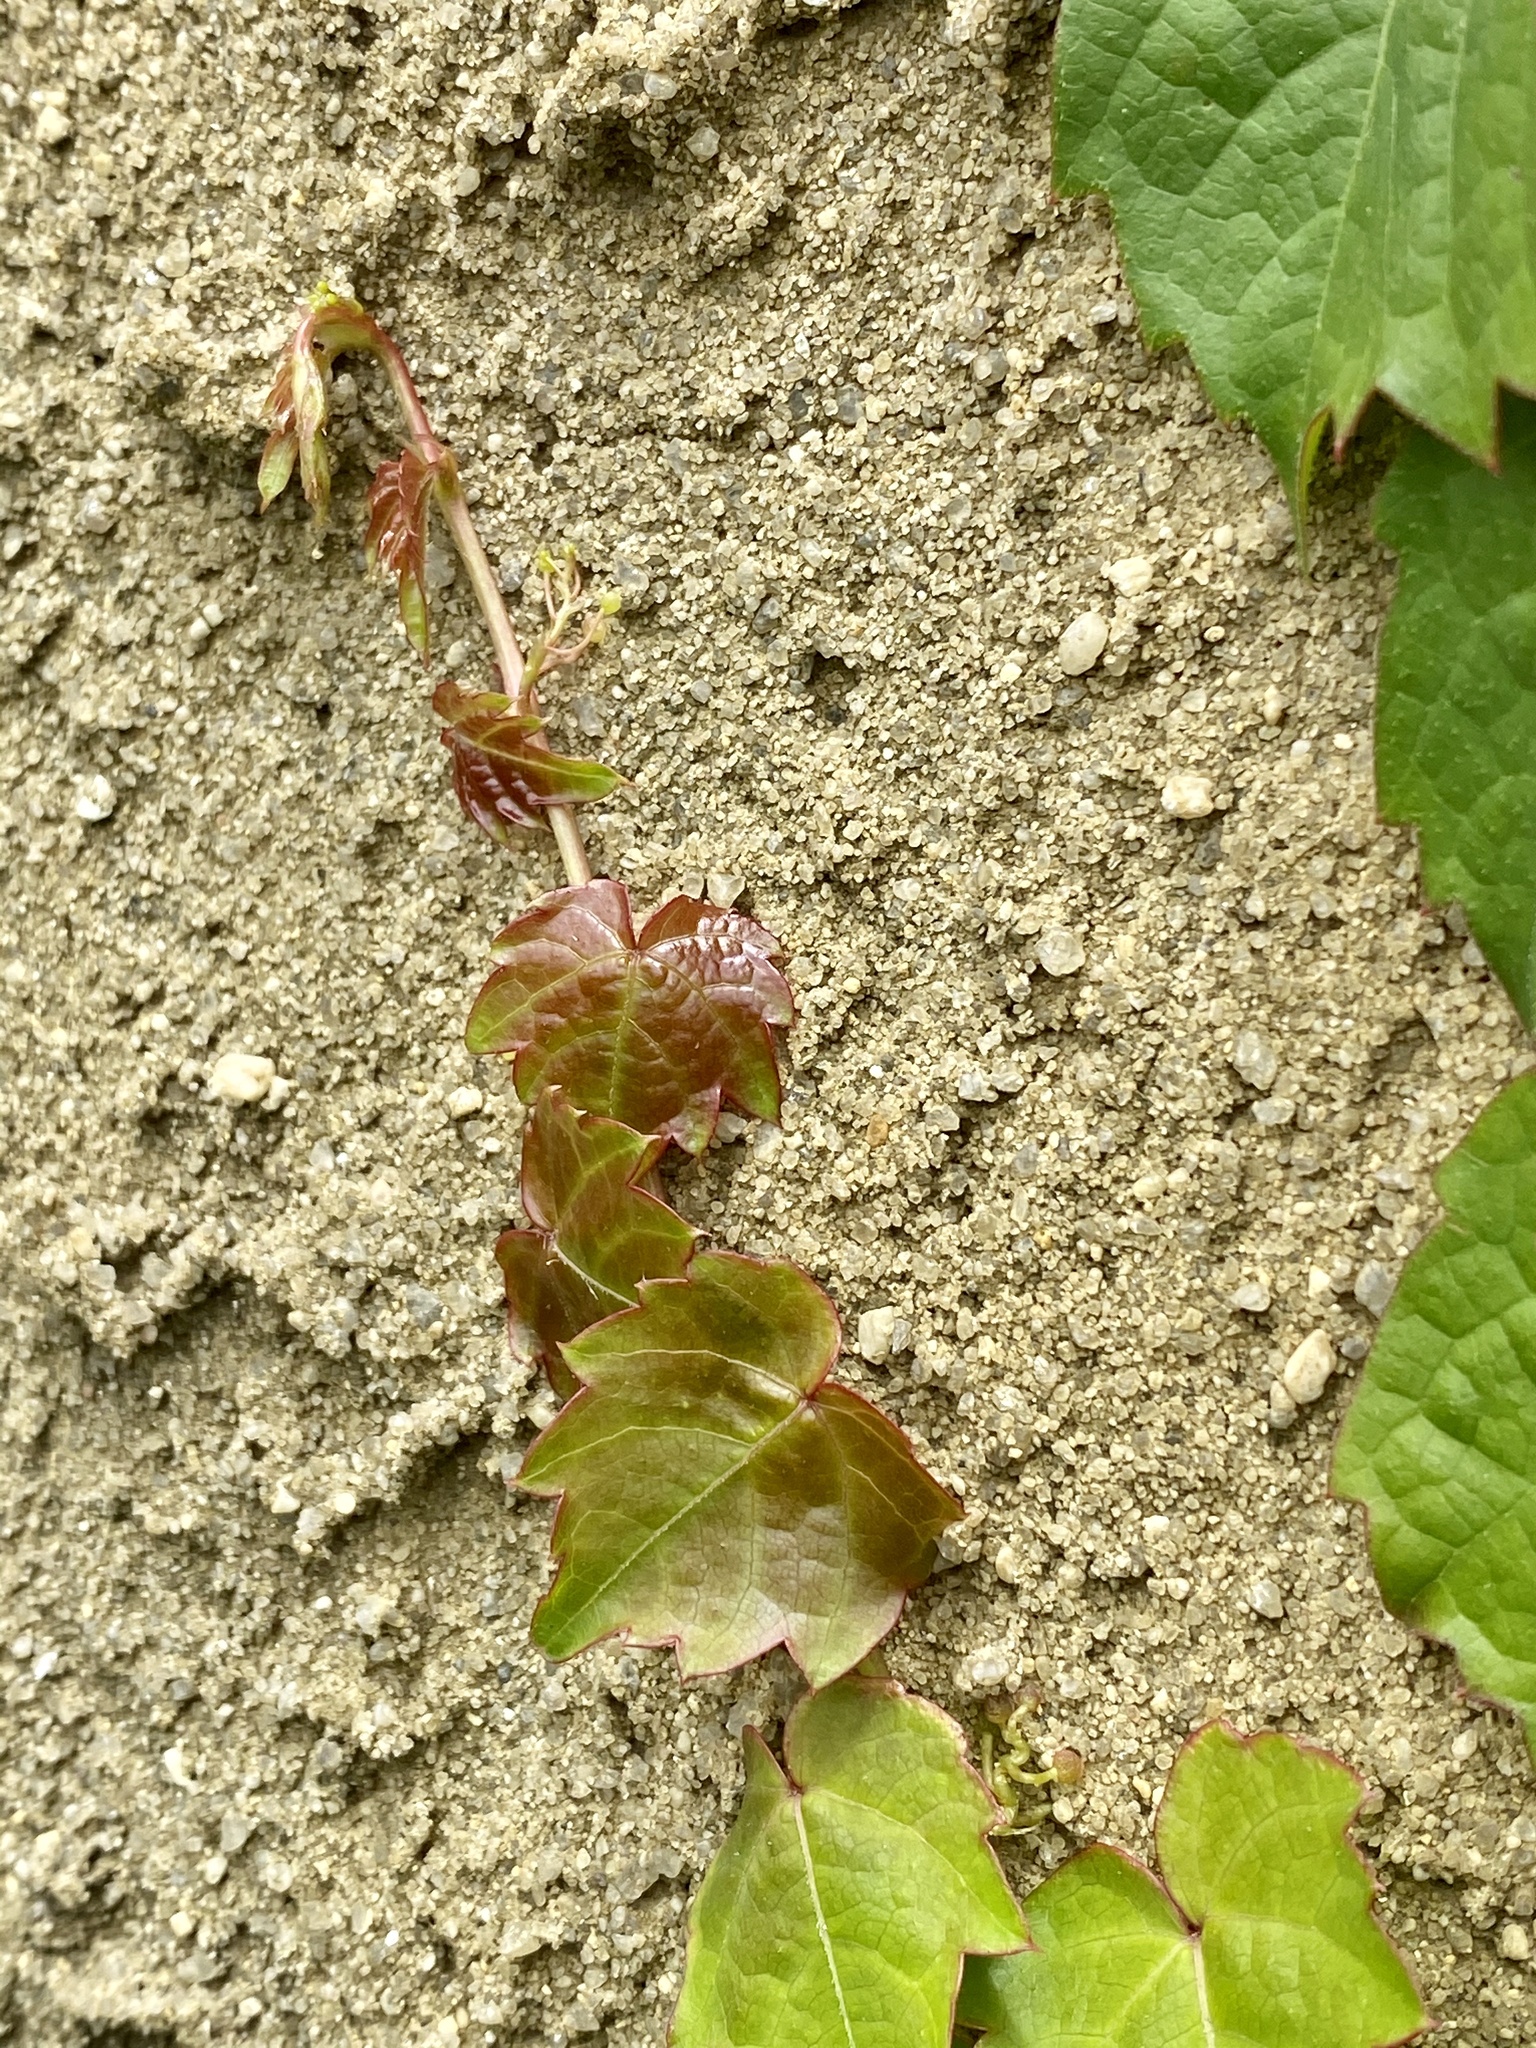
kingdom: Plantae
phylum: Tracheophyta
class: Magnoliopsida
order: Vitales
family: Vitaceae
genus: Parthenocissus
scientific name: Parthenocissus tricuspidata
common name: Boston ivy
